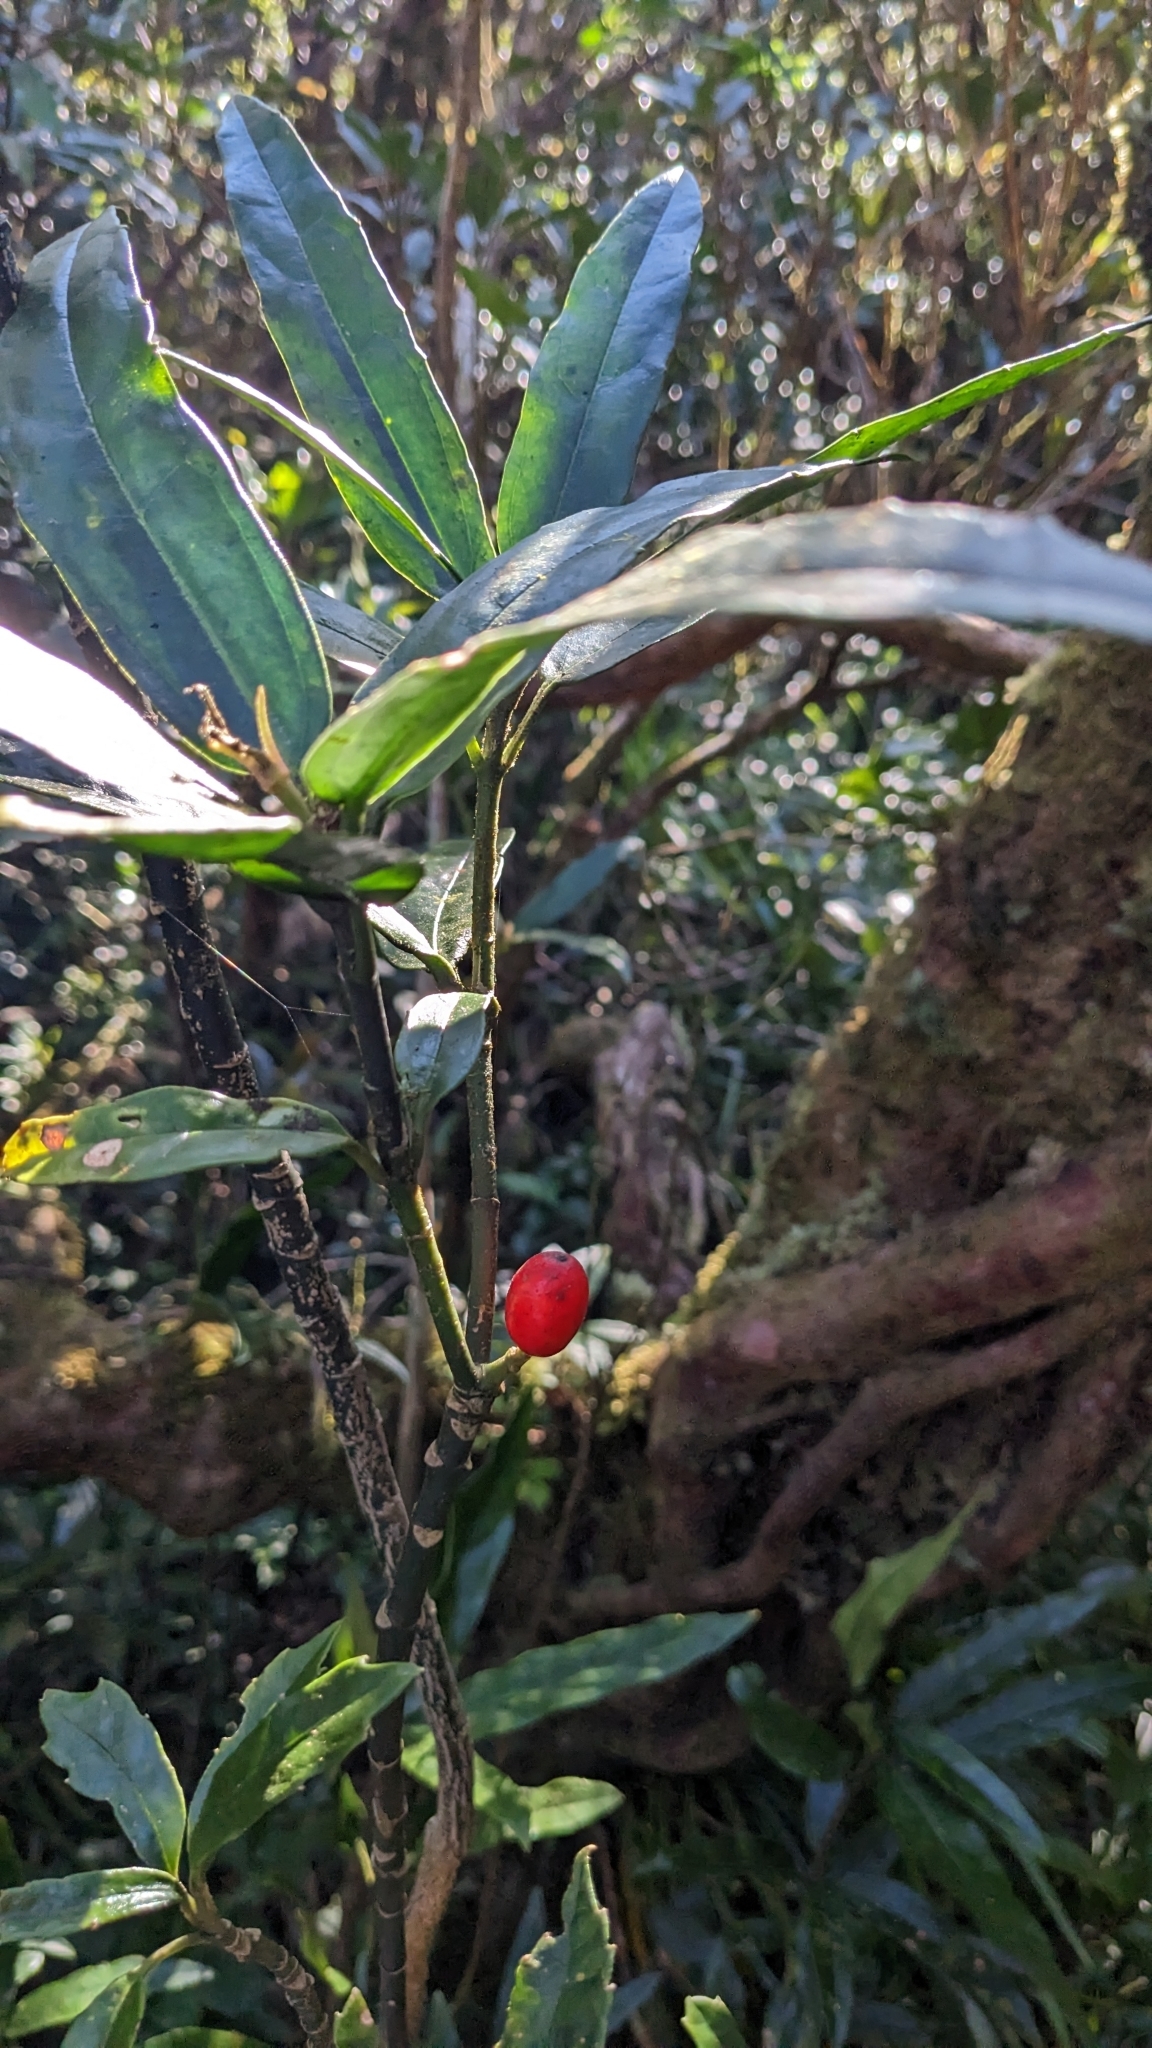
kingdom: Plantae
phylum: Tracheophyta
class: Magnoliopsida
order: Garryales
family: Garryaceae
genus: Aucuba
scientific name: Aucuba chinensis
